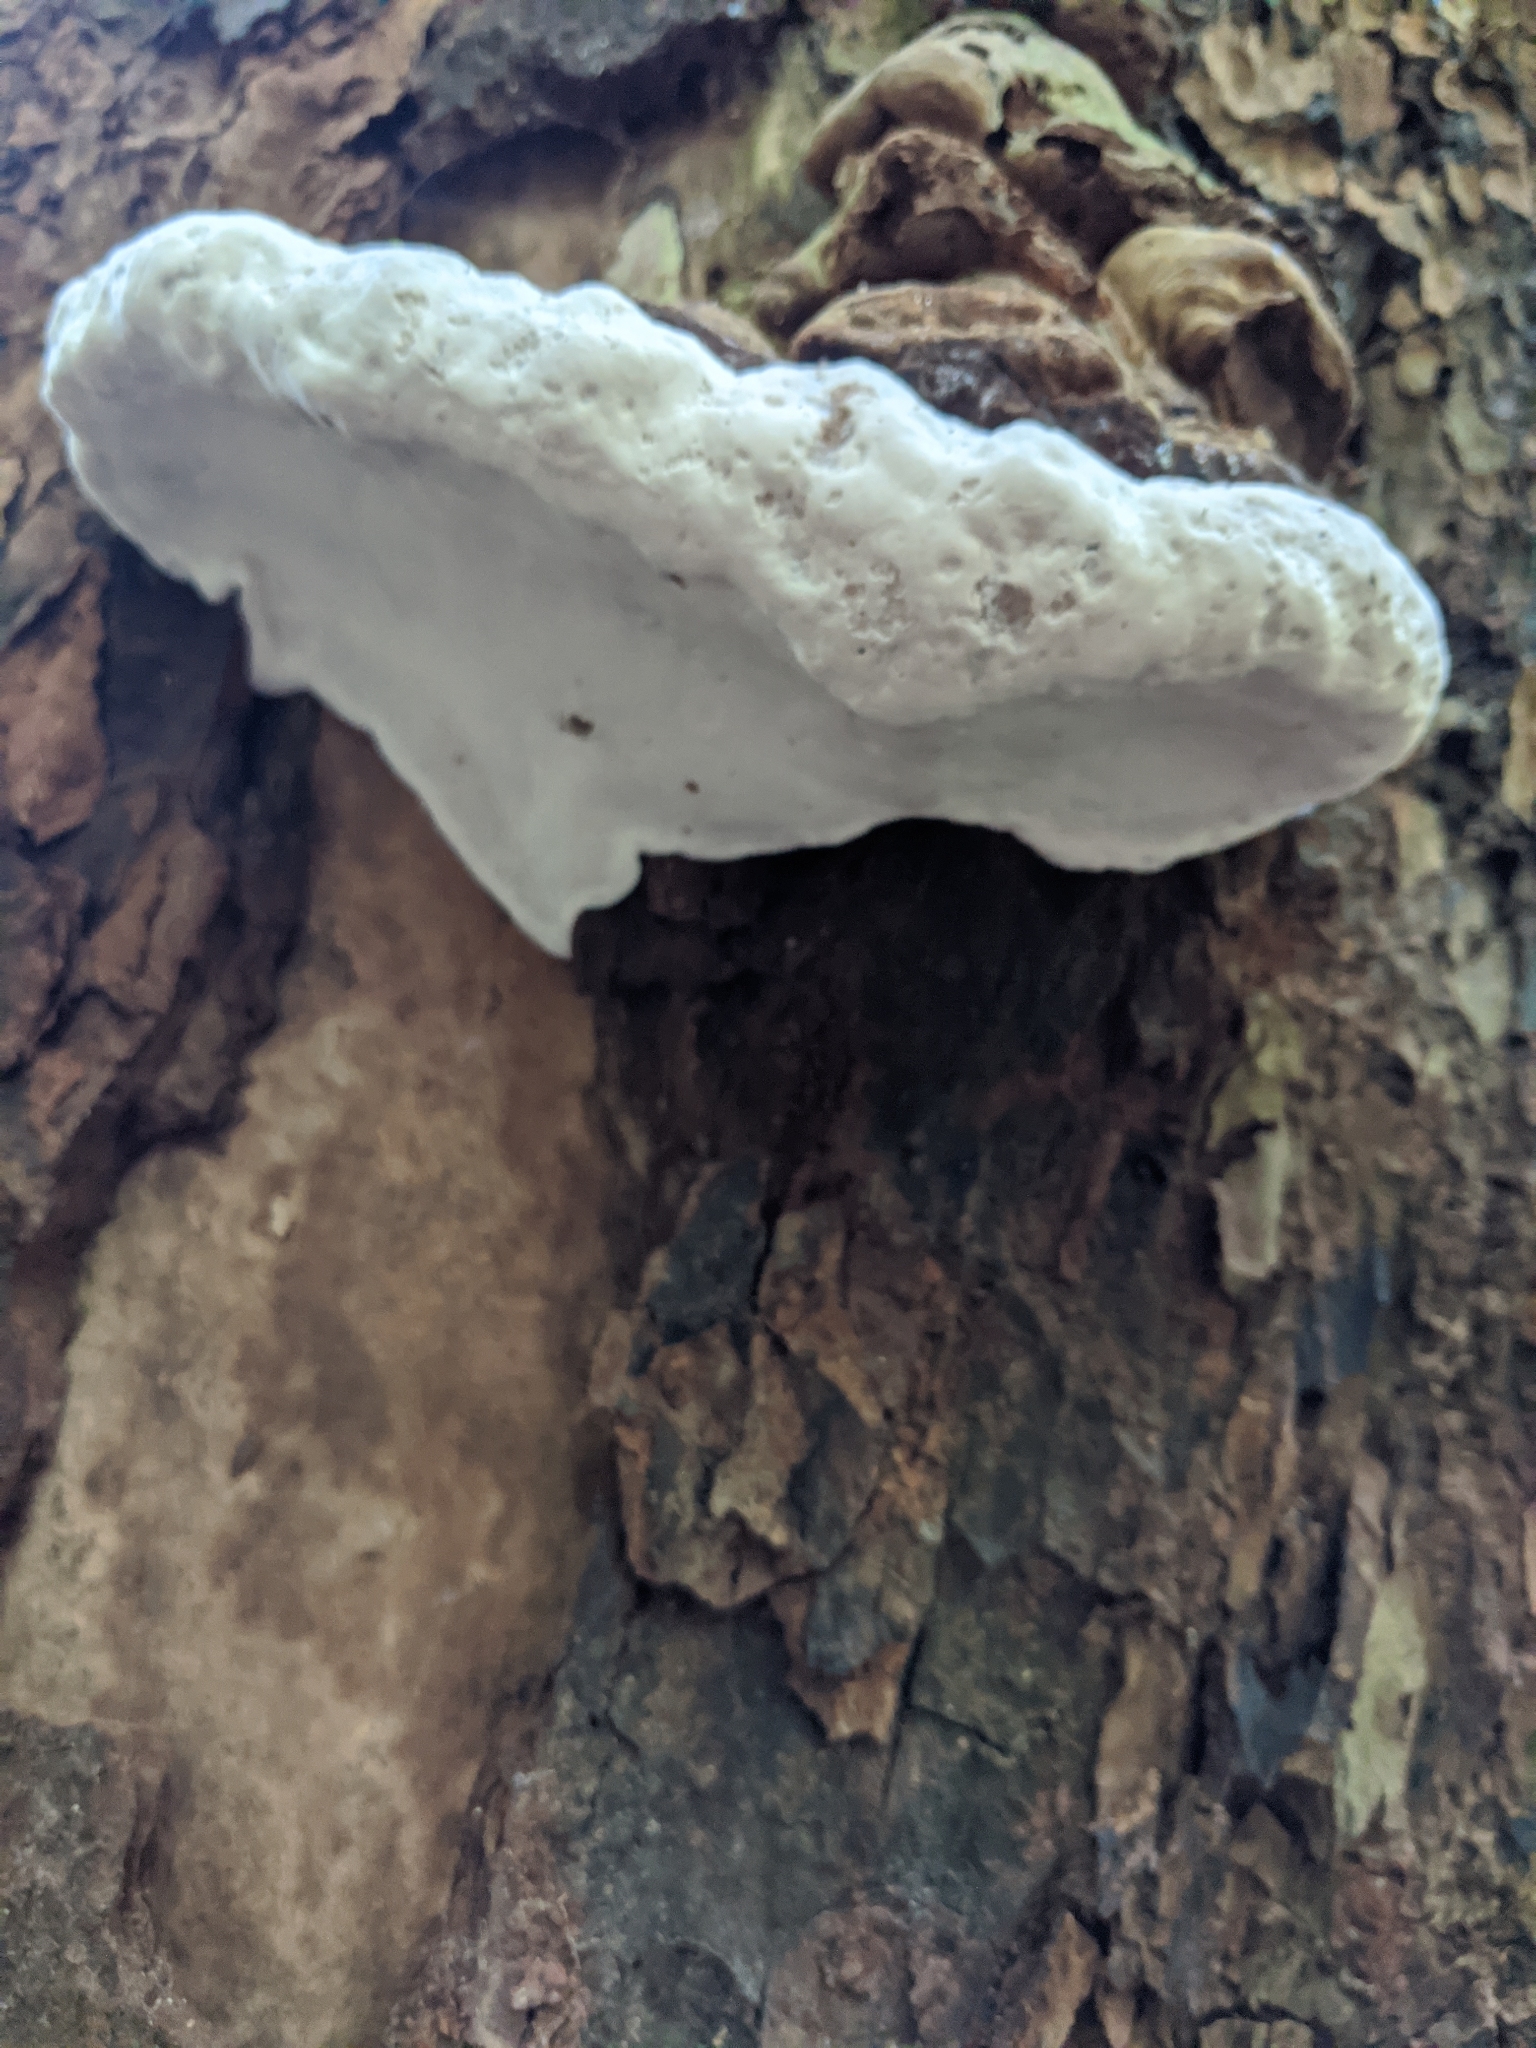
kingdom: Fungi
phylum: Basidiomycota
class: Agaricomycetes
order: Polyporales
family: Fomitopsidaceae
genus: Fomitopsis
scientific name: Fomitopsis ochracea
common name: American brown fomitopsis
